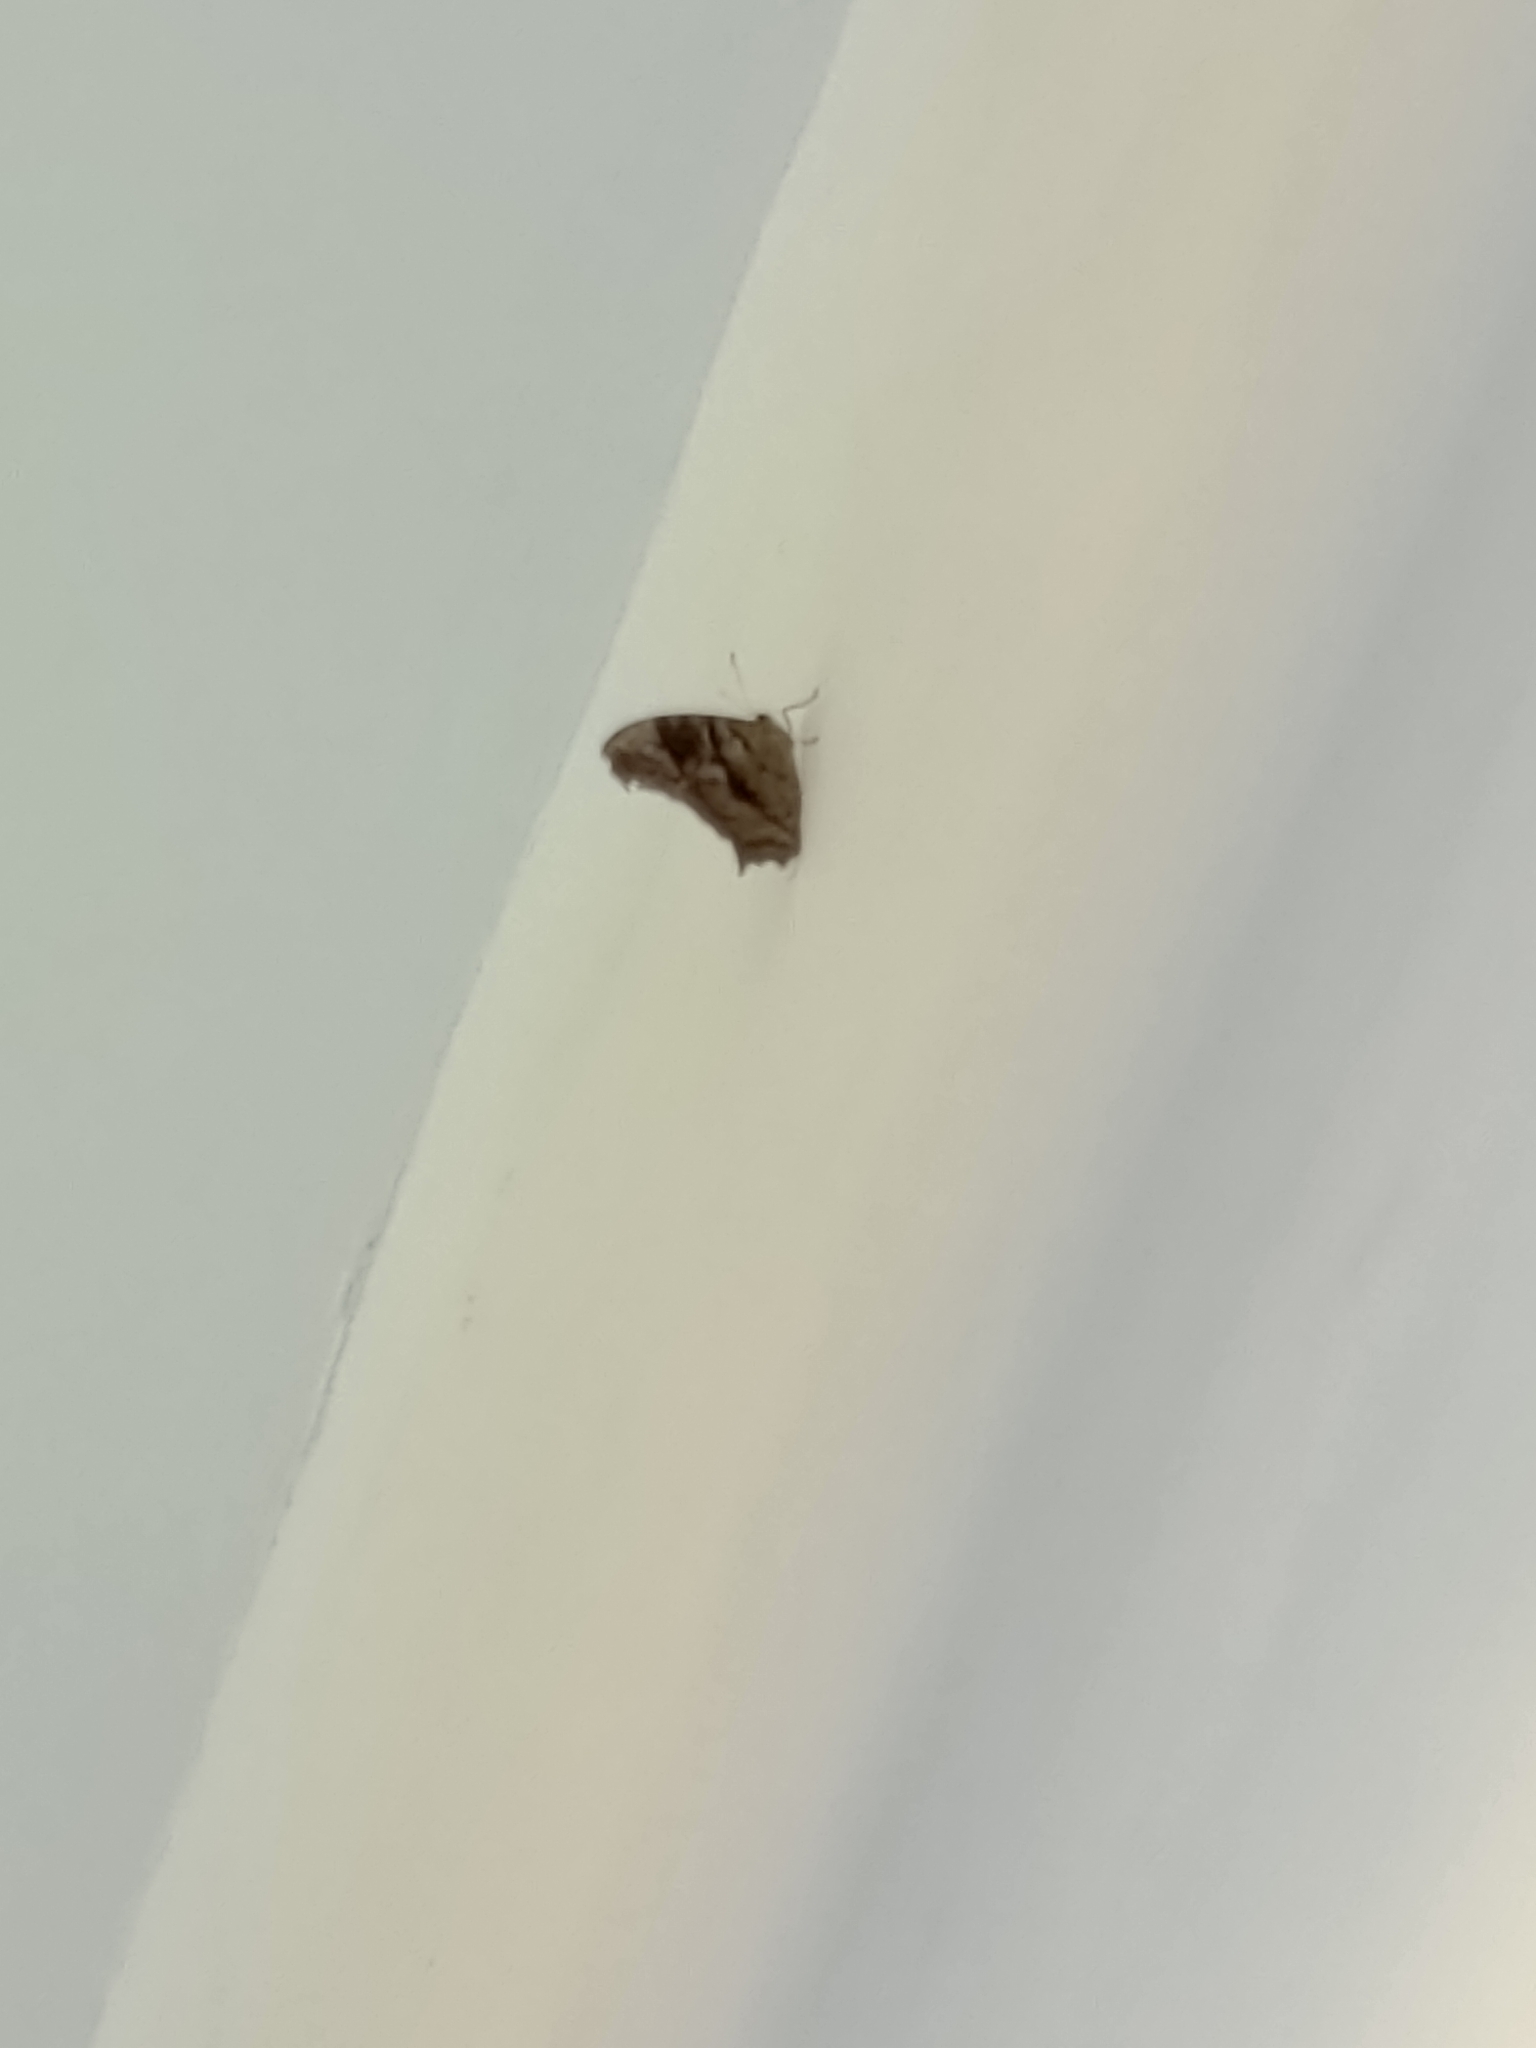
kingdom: Animalia
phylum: Arthropoda
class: Insecta
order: Lepidoptera
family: Nymphalidae
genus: Melanitis
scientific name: Melanitis leda
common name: Twilight brown
